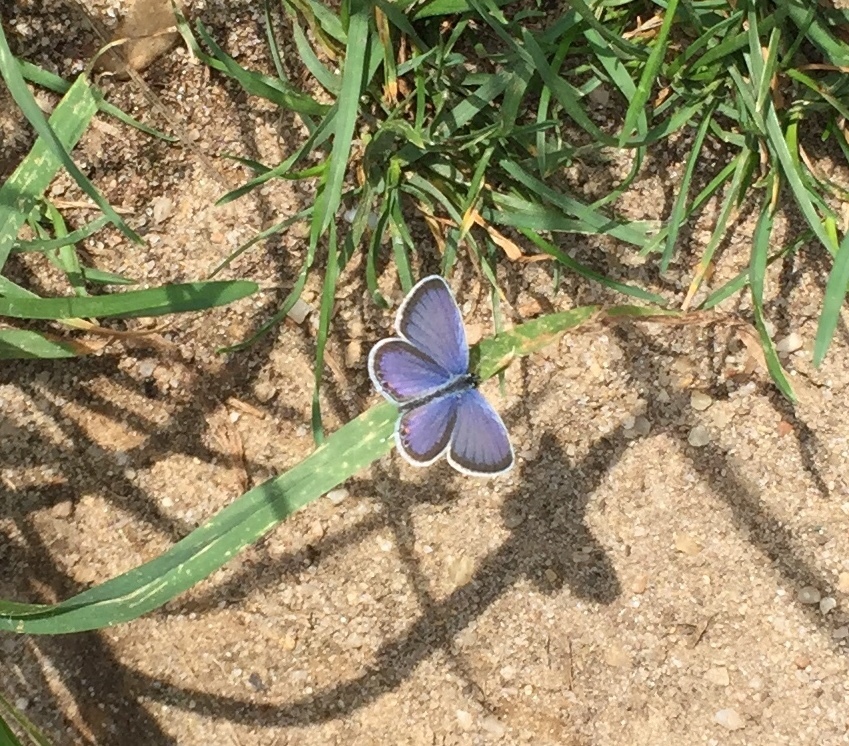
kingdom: Animalia
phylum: Arthropoda
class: Insecta
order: Lepidoptera
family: Lycaenidae
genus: Elkalyce
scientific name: Elkalyce comyntas
